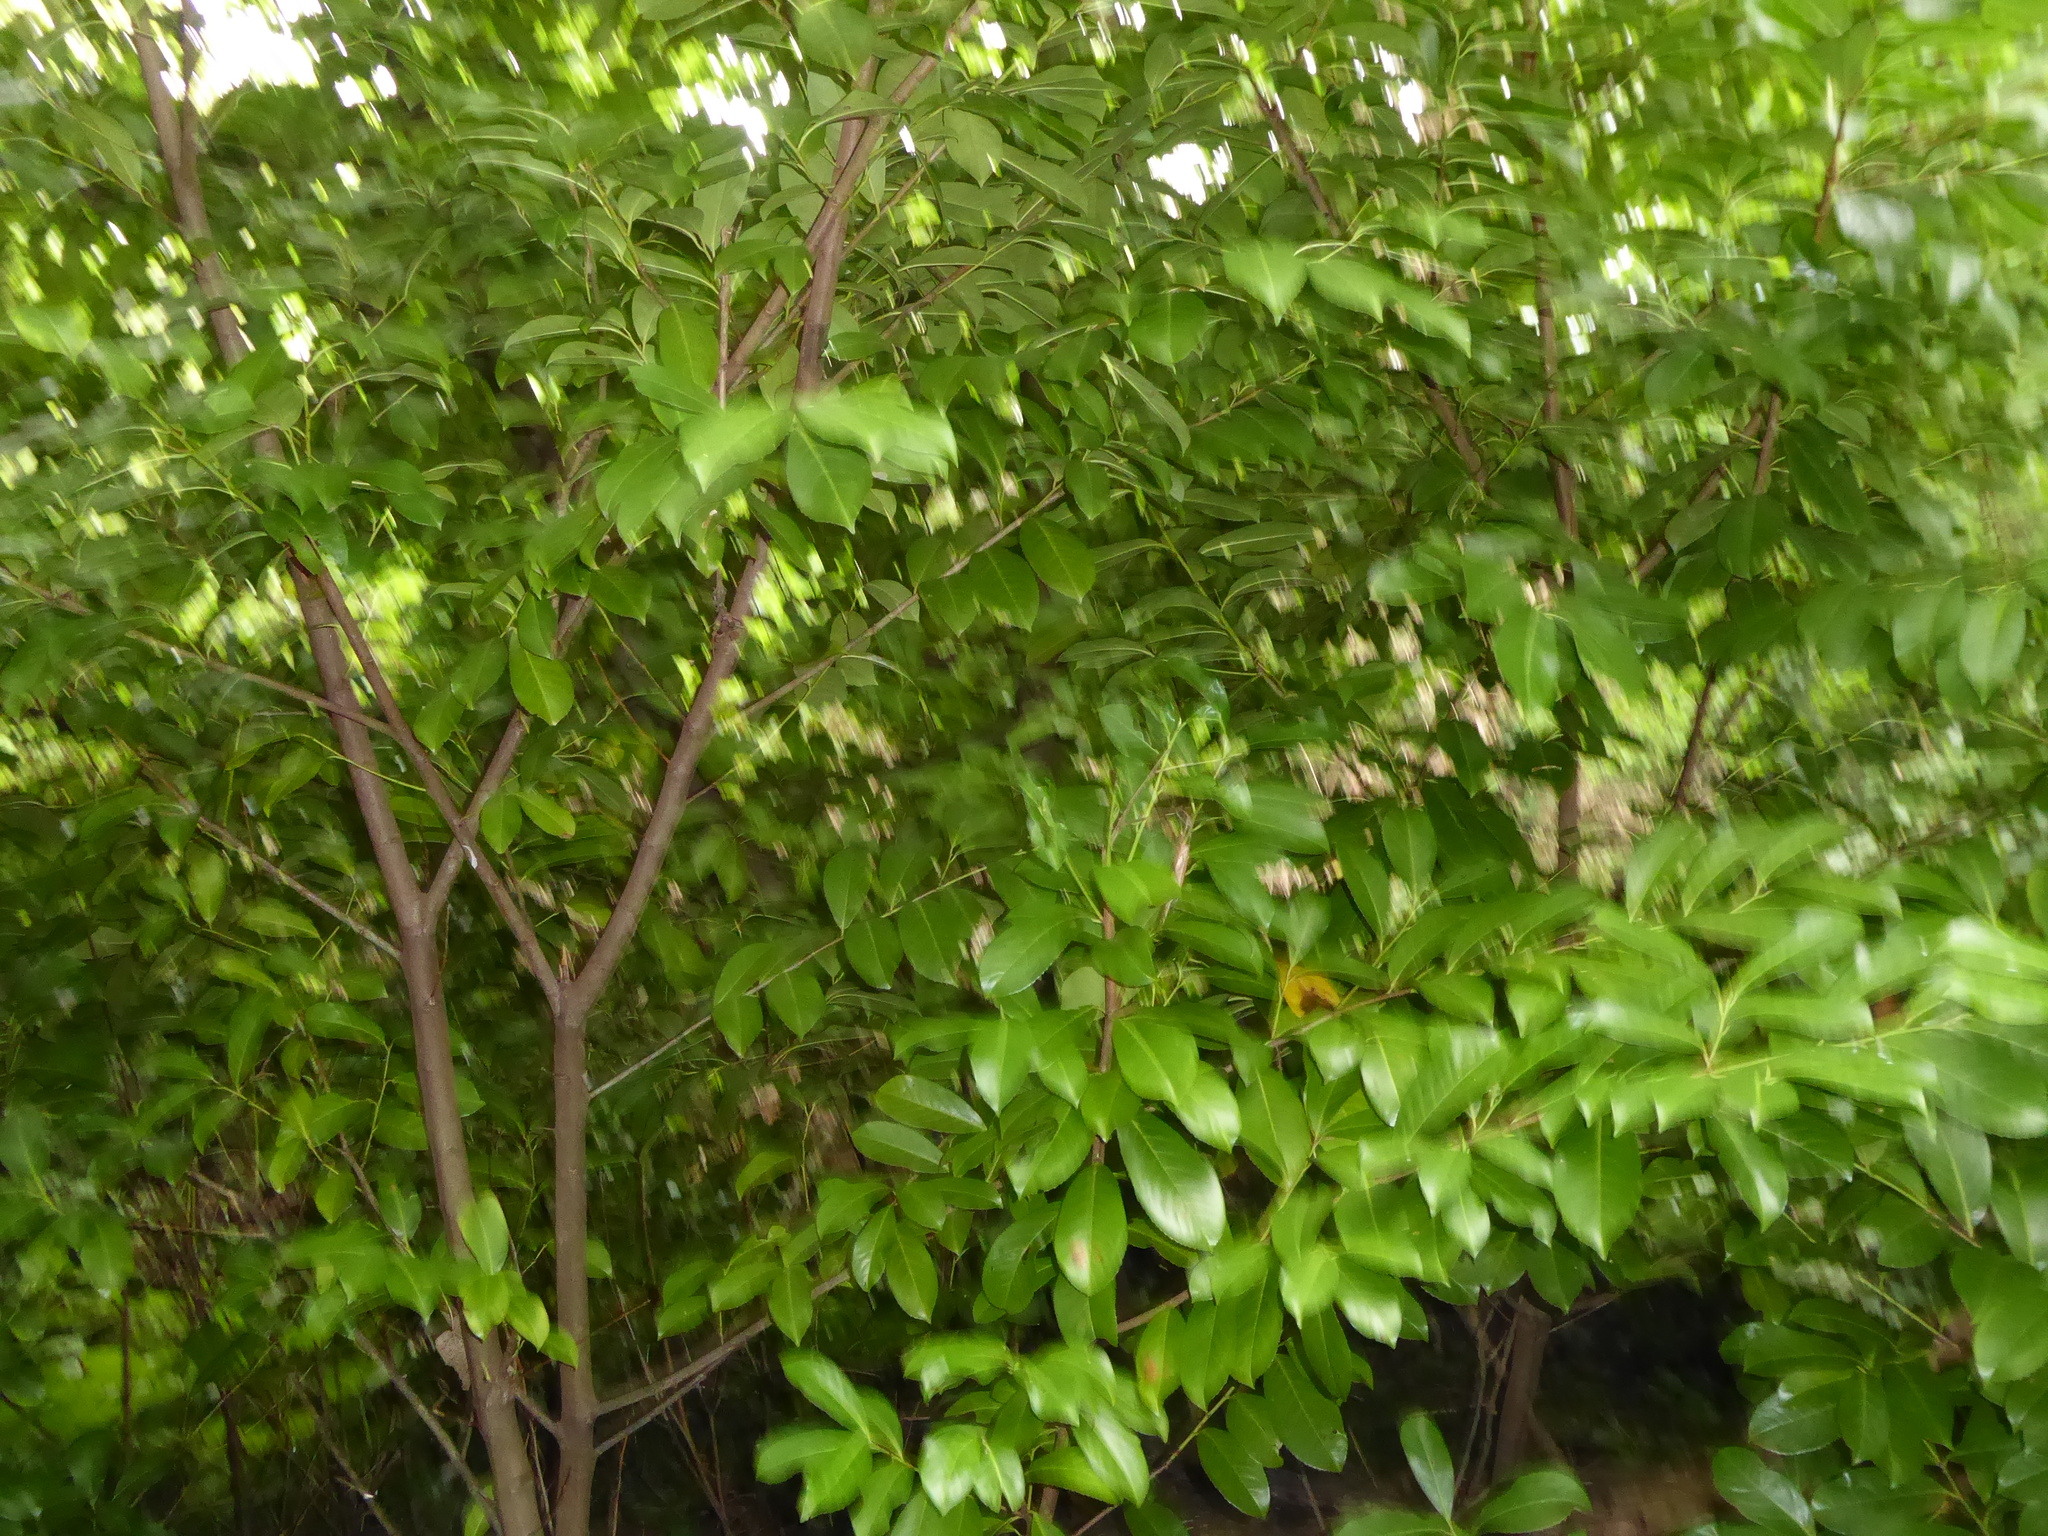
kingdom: Plantae
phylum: Tracheophyta
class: Magnoliopsida
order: Rosales
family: Rosaceae
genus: Prunus
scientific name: Prunus laurocerasus
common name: Cherry laurel
